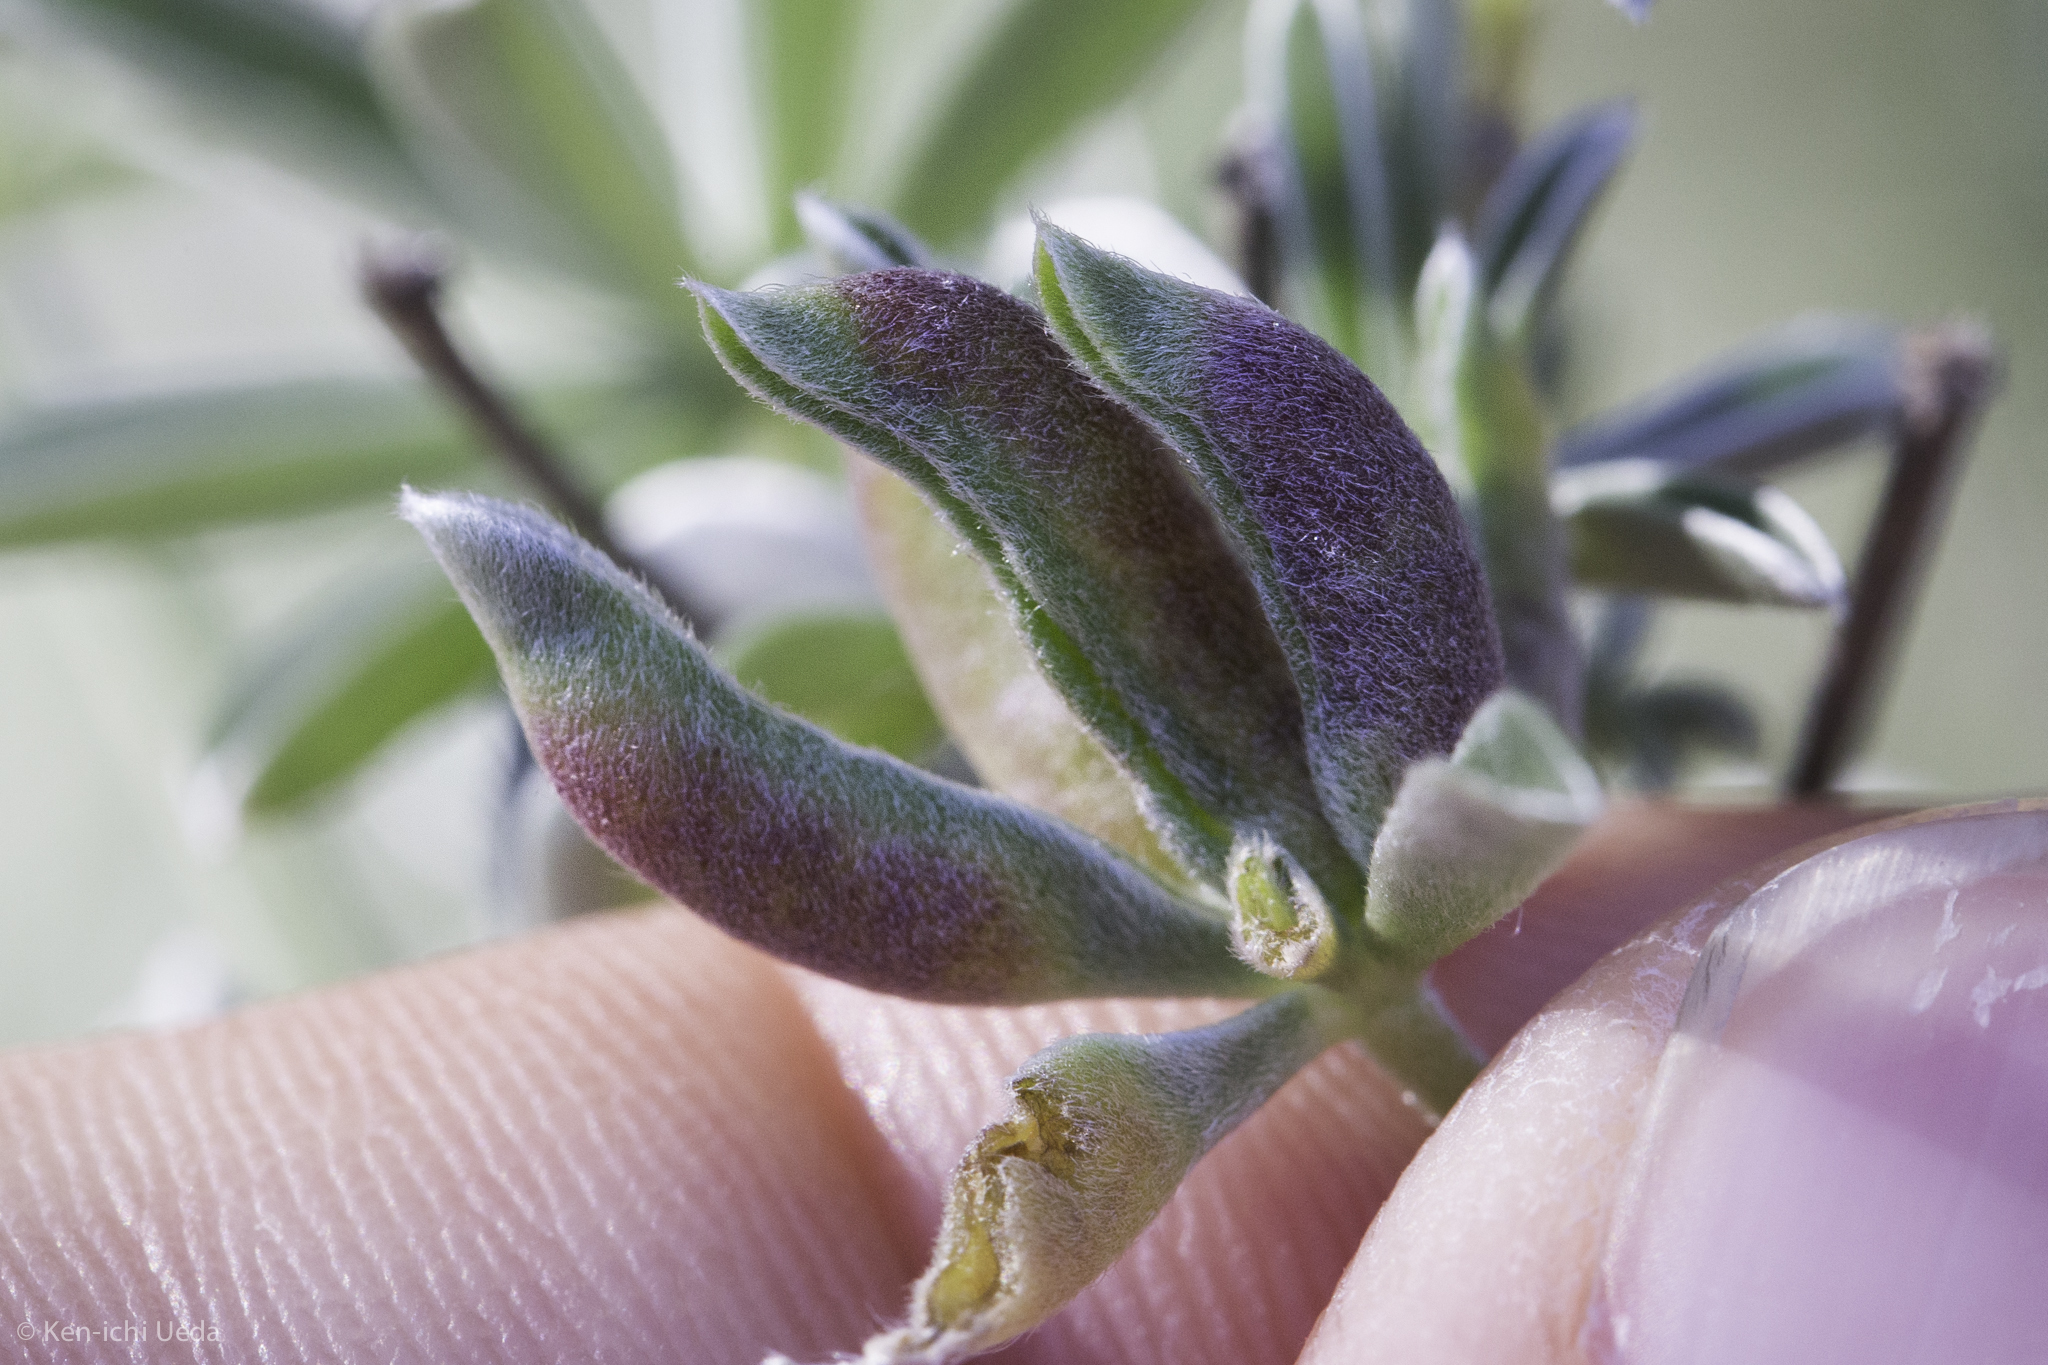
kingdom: Animalia
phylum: Arthropoda
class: Insecta
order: Diptera
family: Cecidomyiidae
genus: Dasineura
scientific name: Dasineura lupinorum
